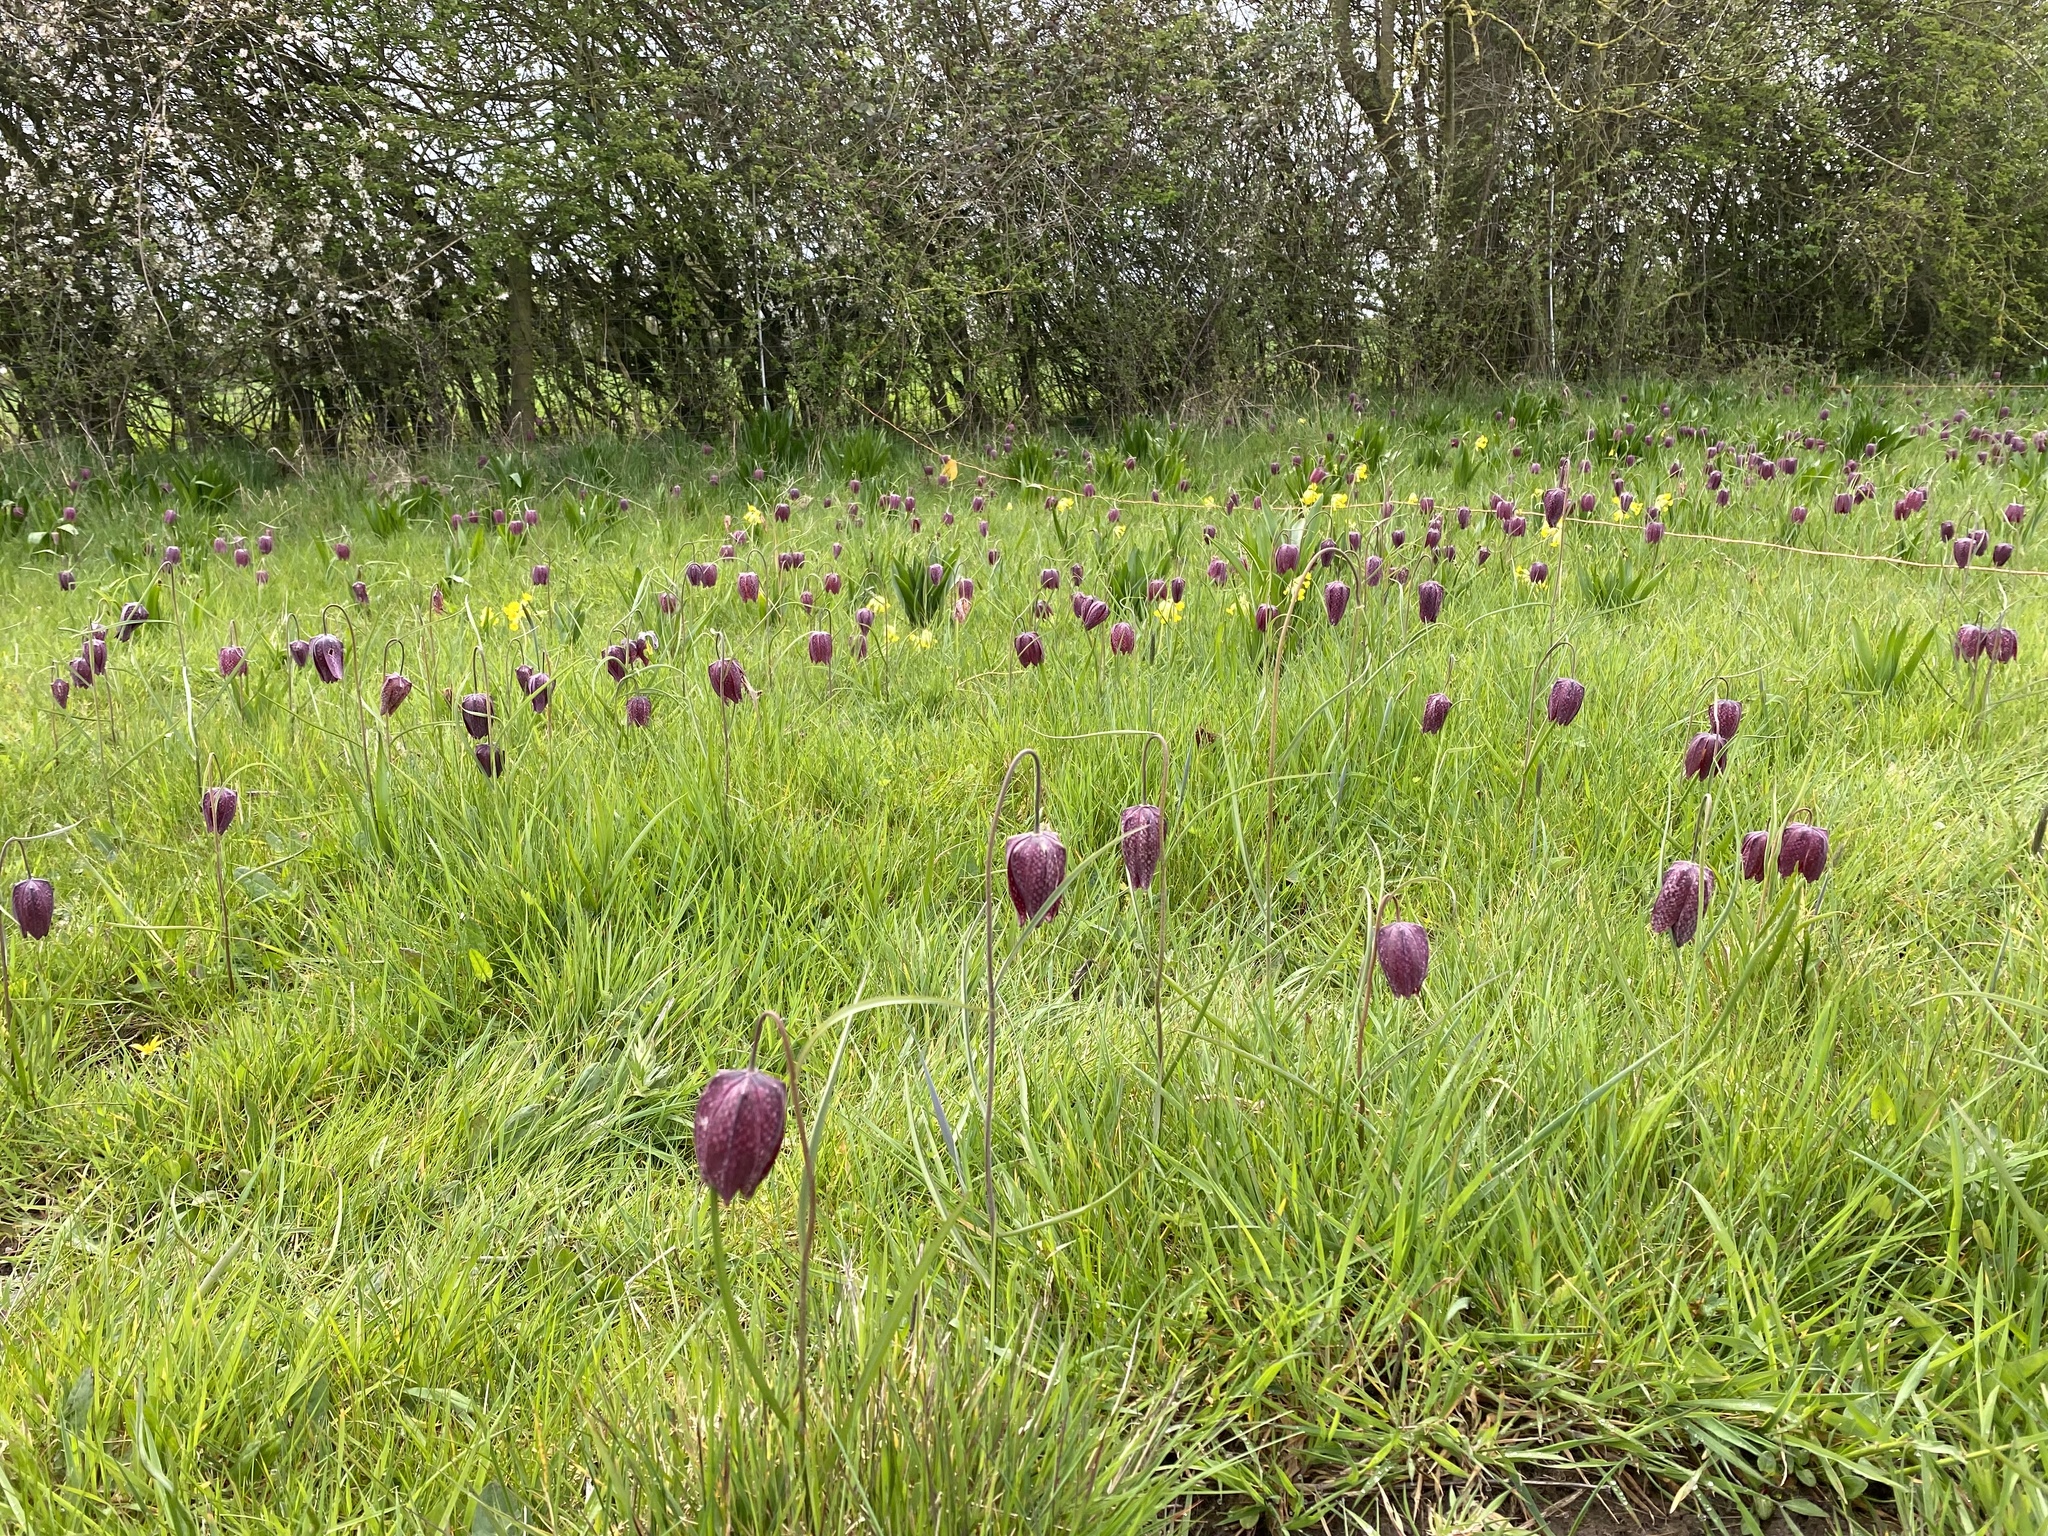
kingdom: Plantae
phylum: Tracheophyta
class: Liliopsida
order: Liliales
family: Liliaceae
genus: Fritillaria
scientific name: Fritillaria meleagris
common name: Fritillary
